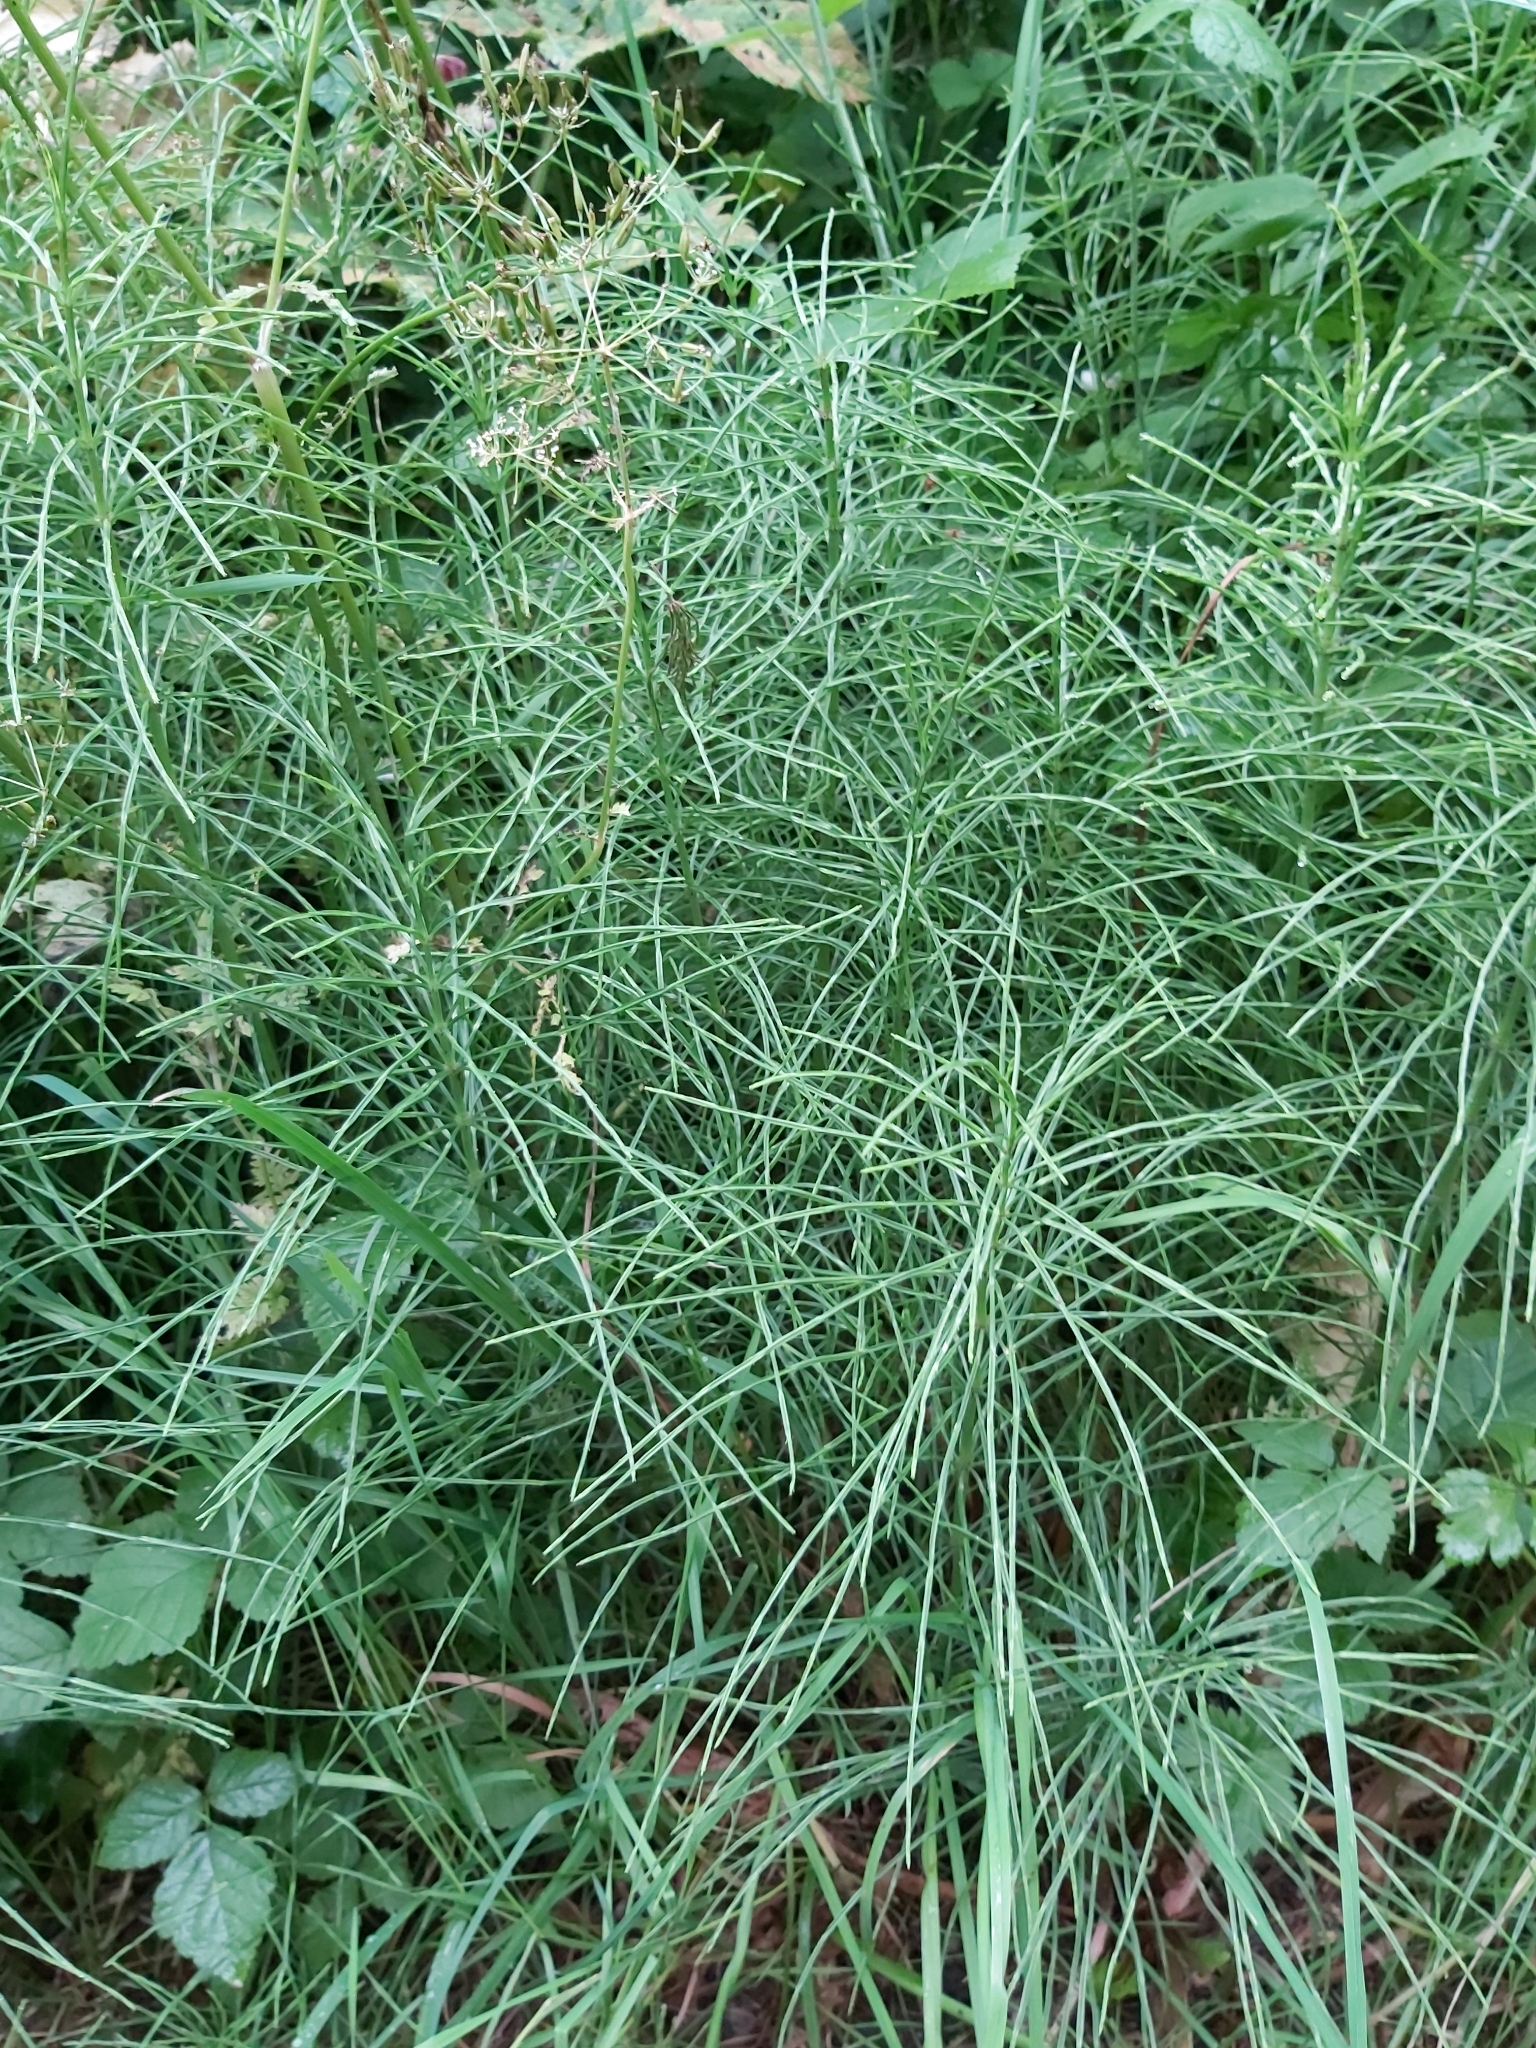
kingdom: Plantae
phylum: Tracheophyta
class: Polypodiopsida
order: Equisetales
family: Equisetaceae
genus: Equisetum
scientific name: Equisetum arvense
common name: Field horsetail
